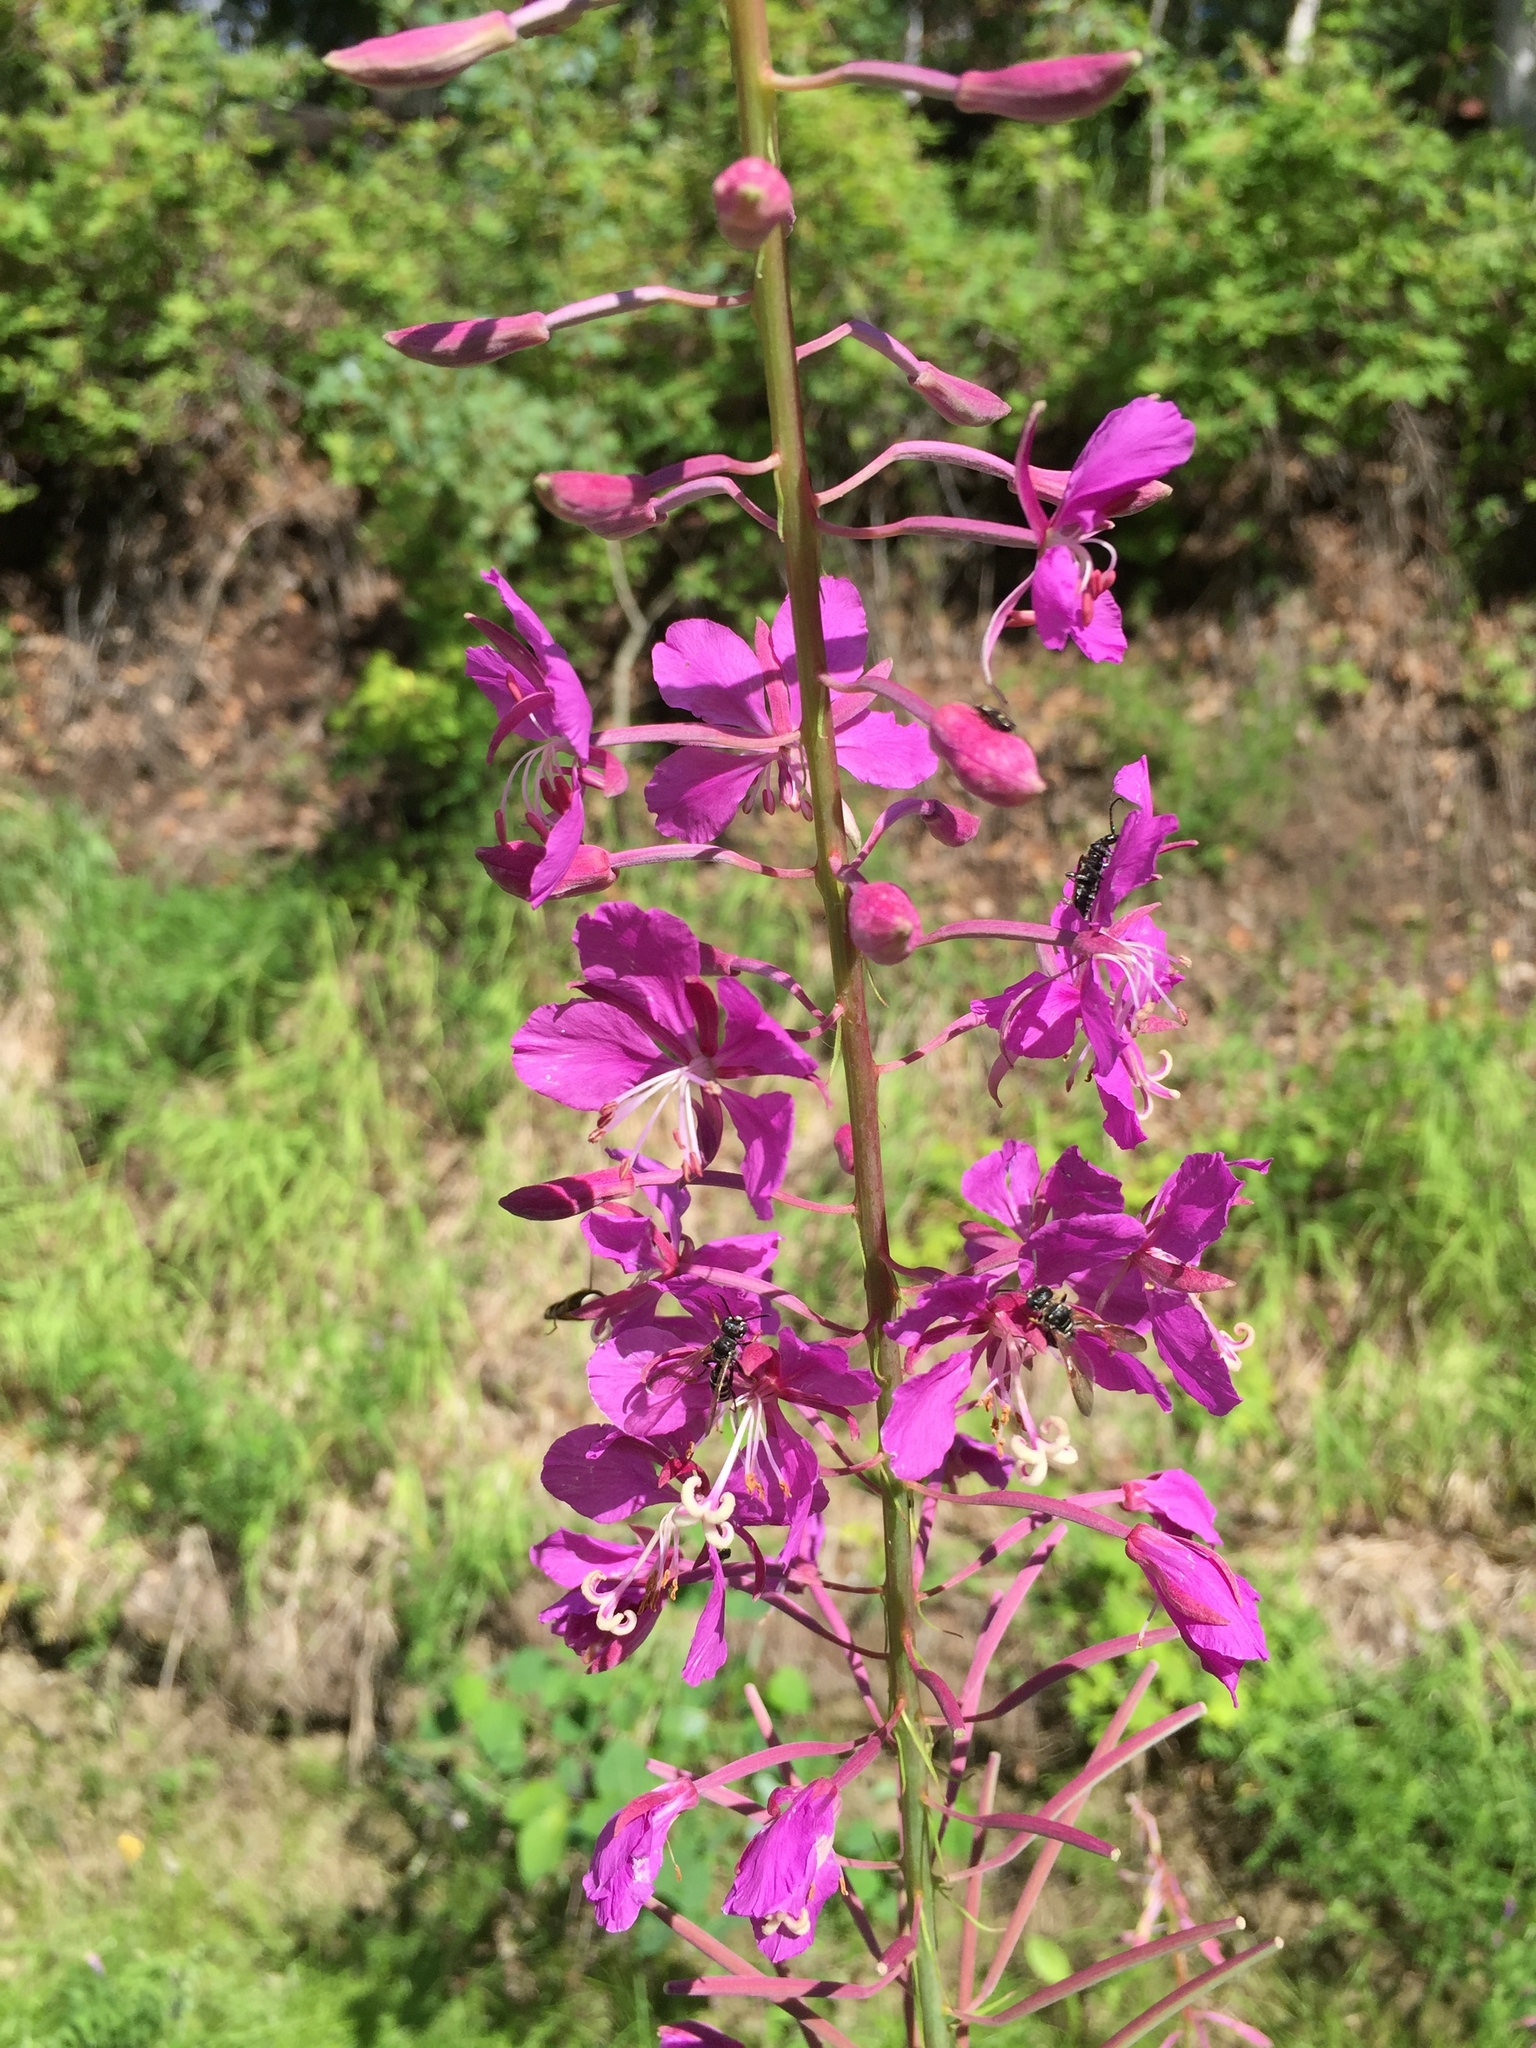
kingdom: Plantae
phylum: Tracheophyta
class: Magnoliopsida
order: Myrtales
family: Onagraceae
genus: Chamaenerion
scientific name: Chamaenerion angustifolium
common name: Fireweed
